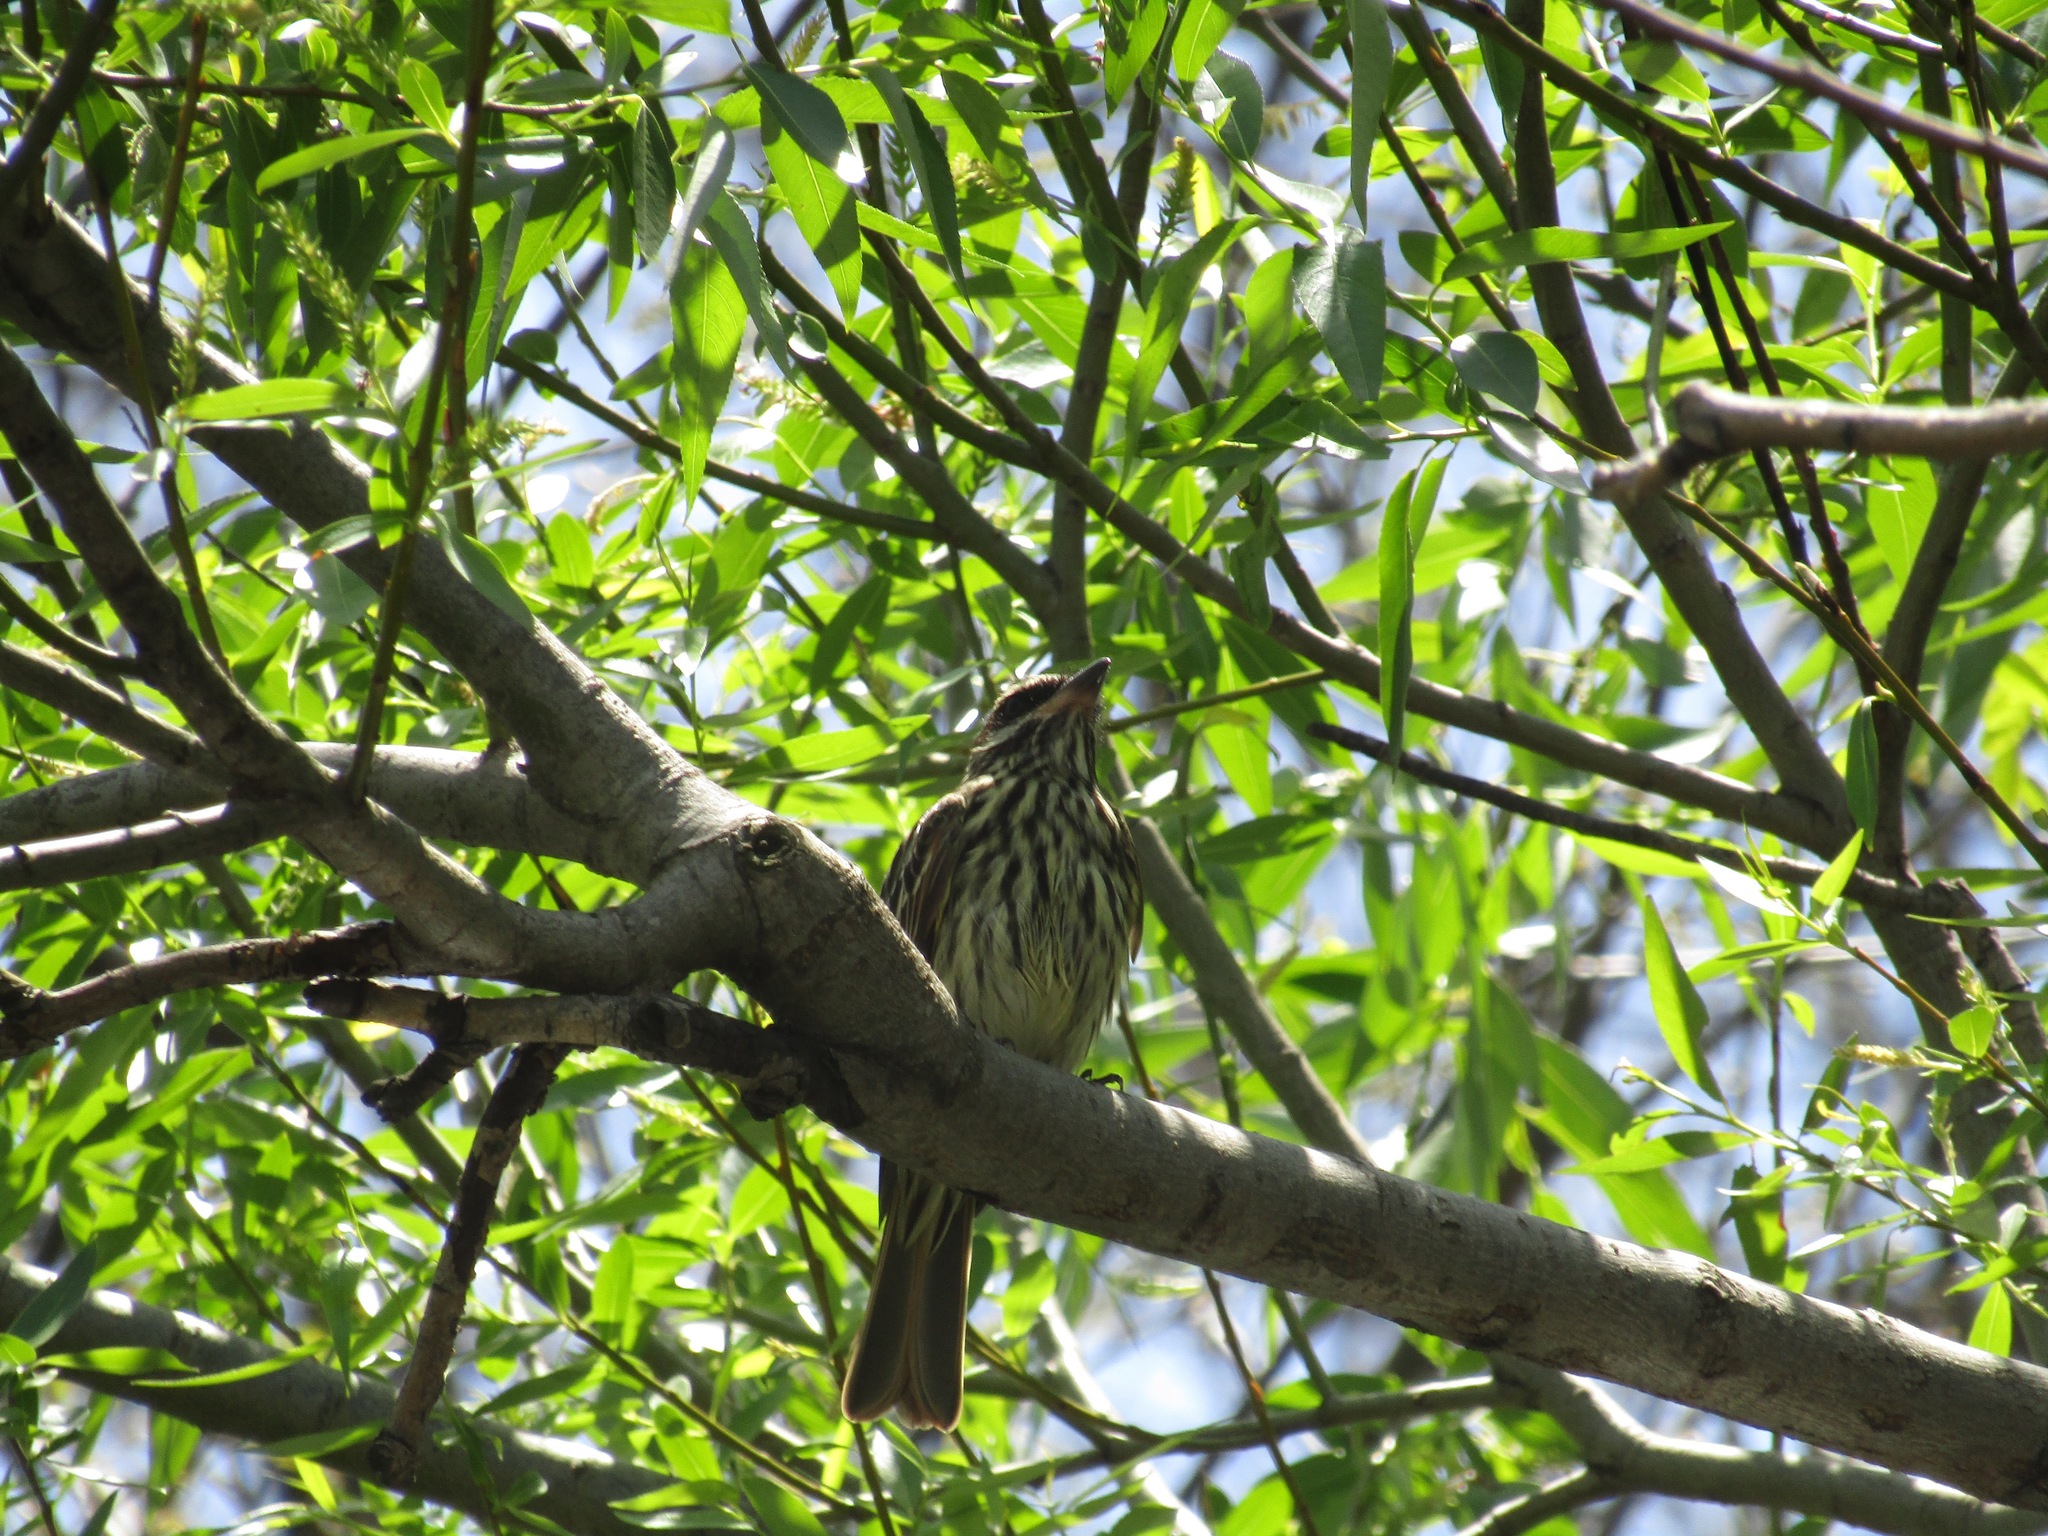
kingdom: Animalia
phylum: Chordata
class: Aves
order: Passeriformes
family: Tyrannidae
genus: Myiodynastes
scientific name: Myiodynastes maculatus
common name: Streaked flycatcher
